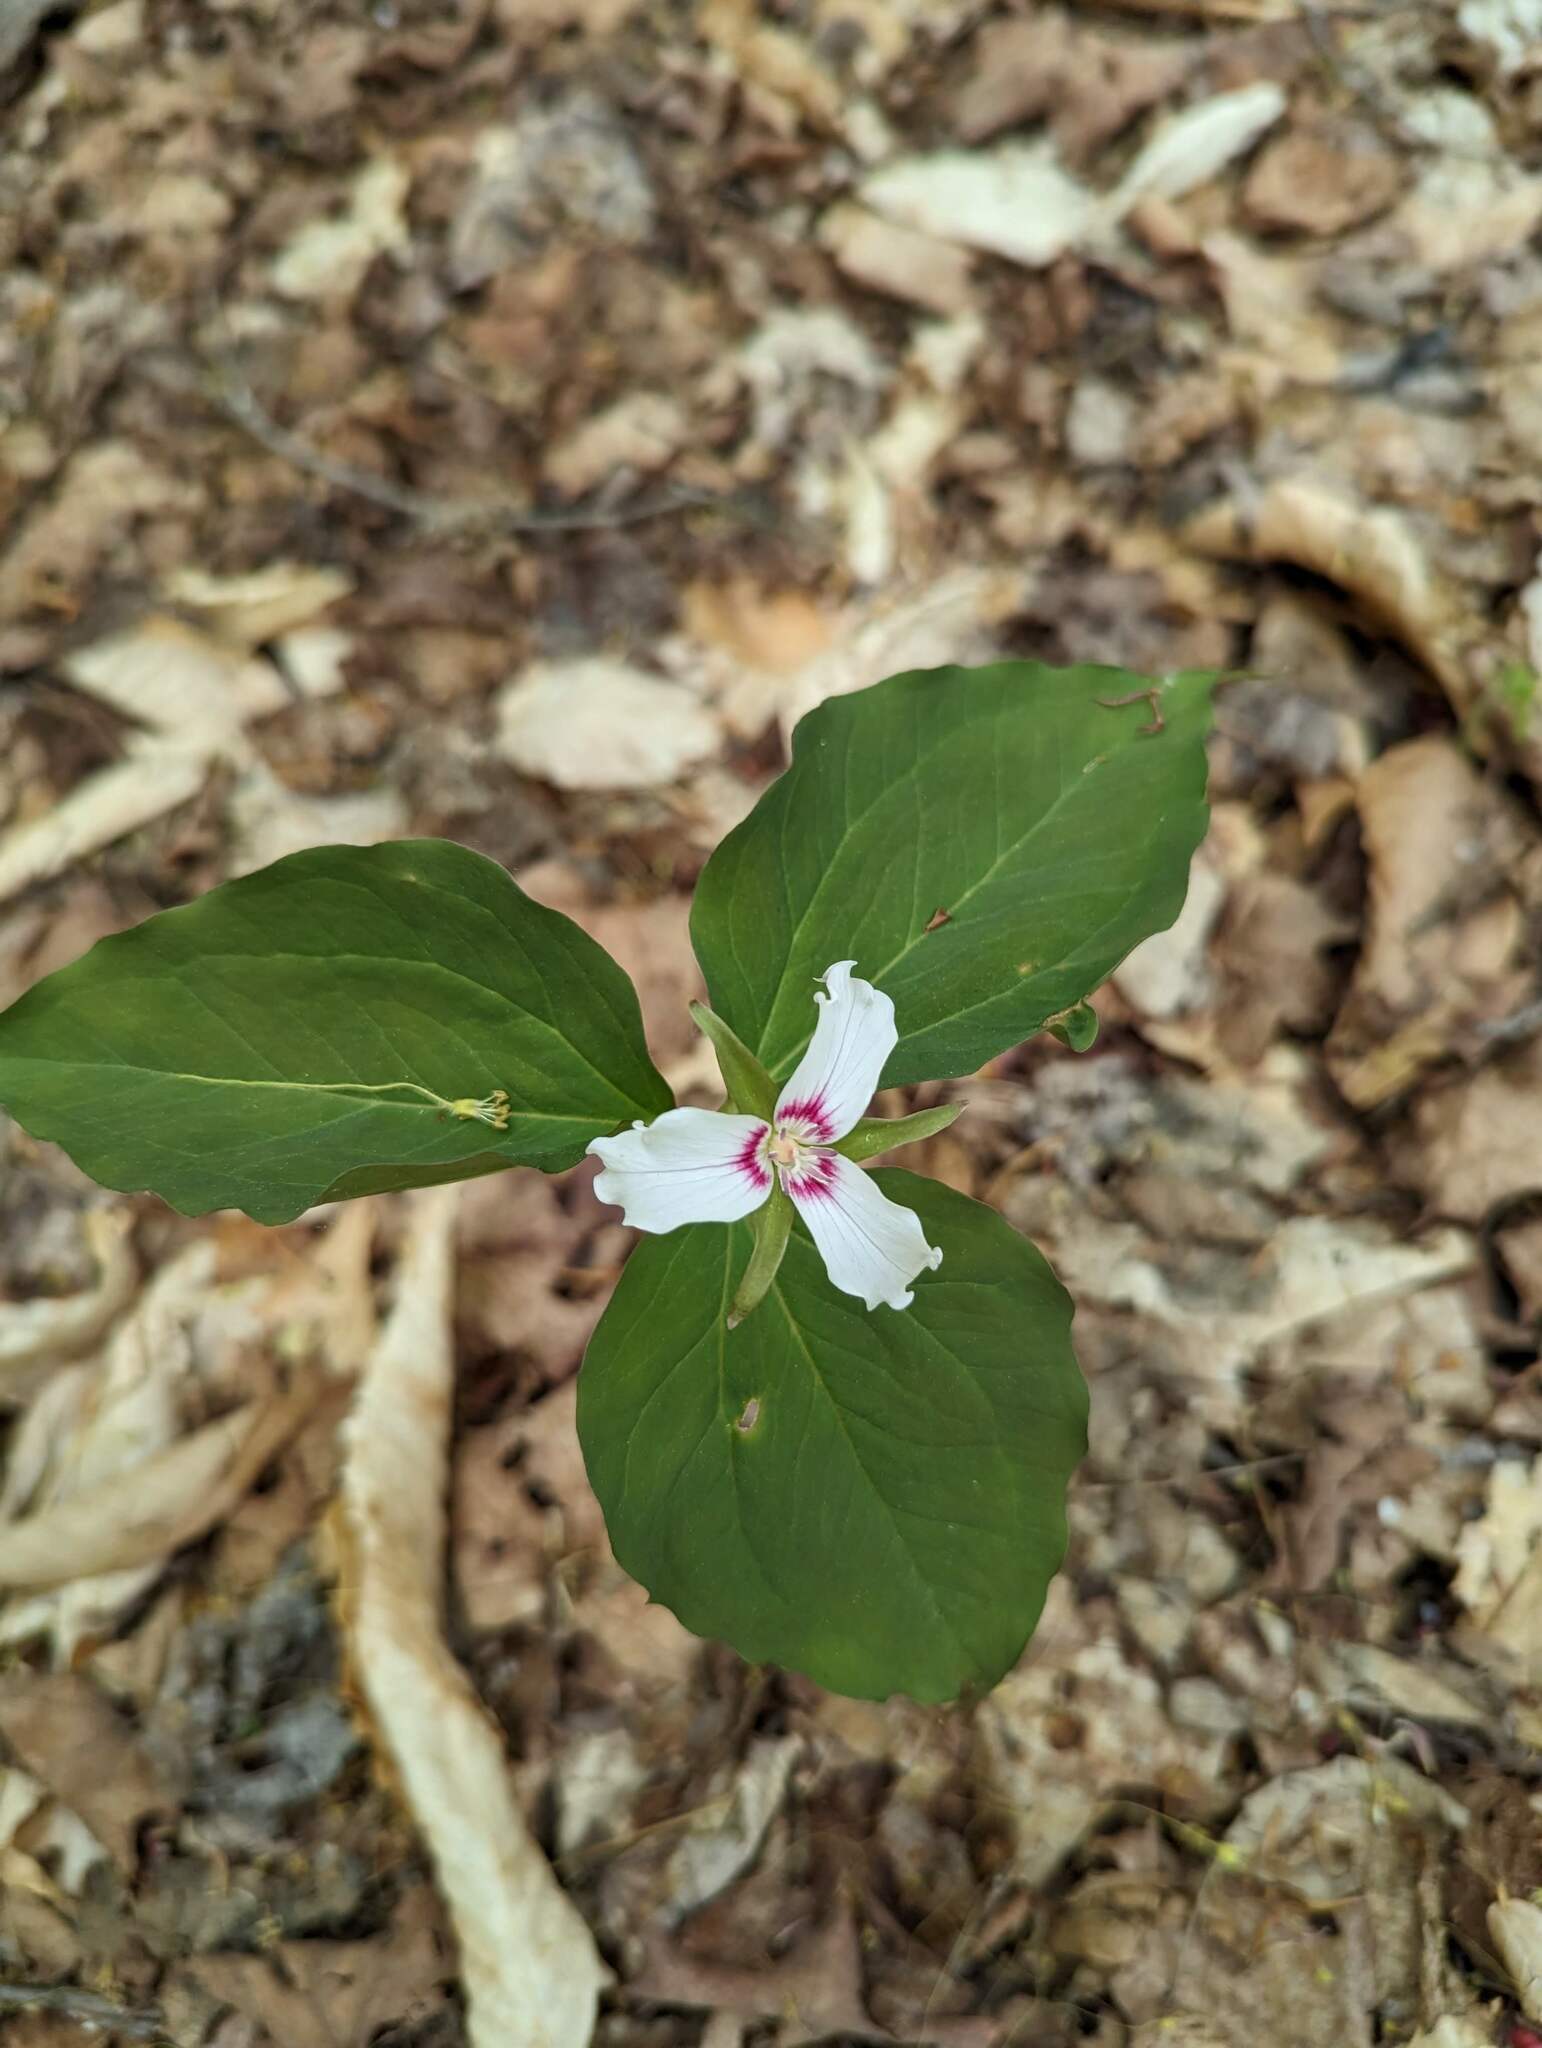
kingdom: Plantae
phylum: Tracheophyta
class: Liliopsida
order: Liliales
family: Melanthiaceae
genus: Trillium
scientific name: Trillium undulatum
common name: Paint trillium
